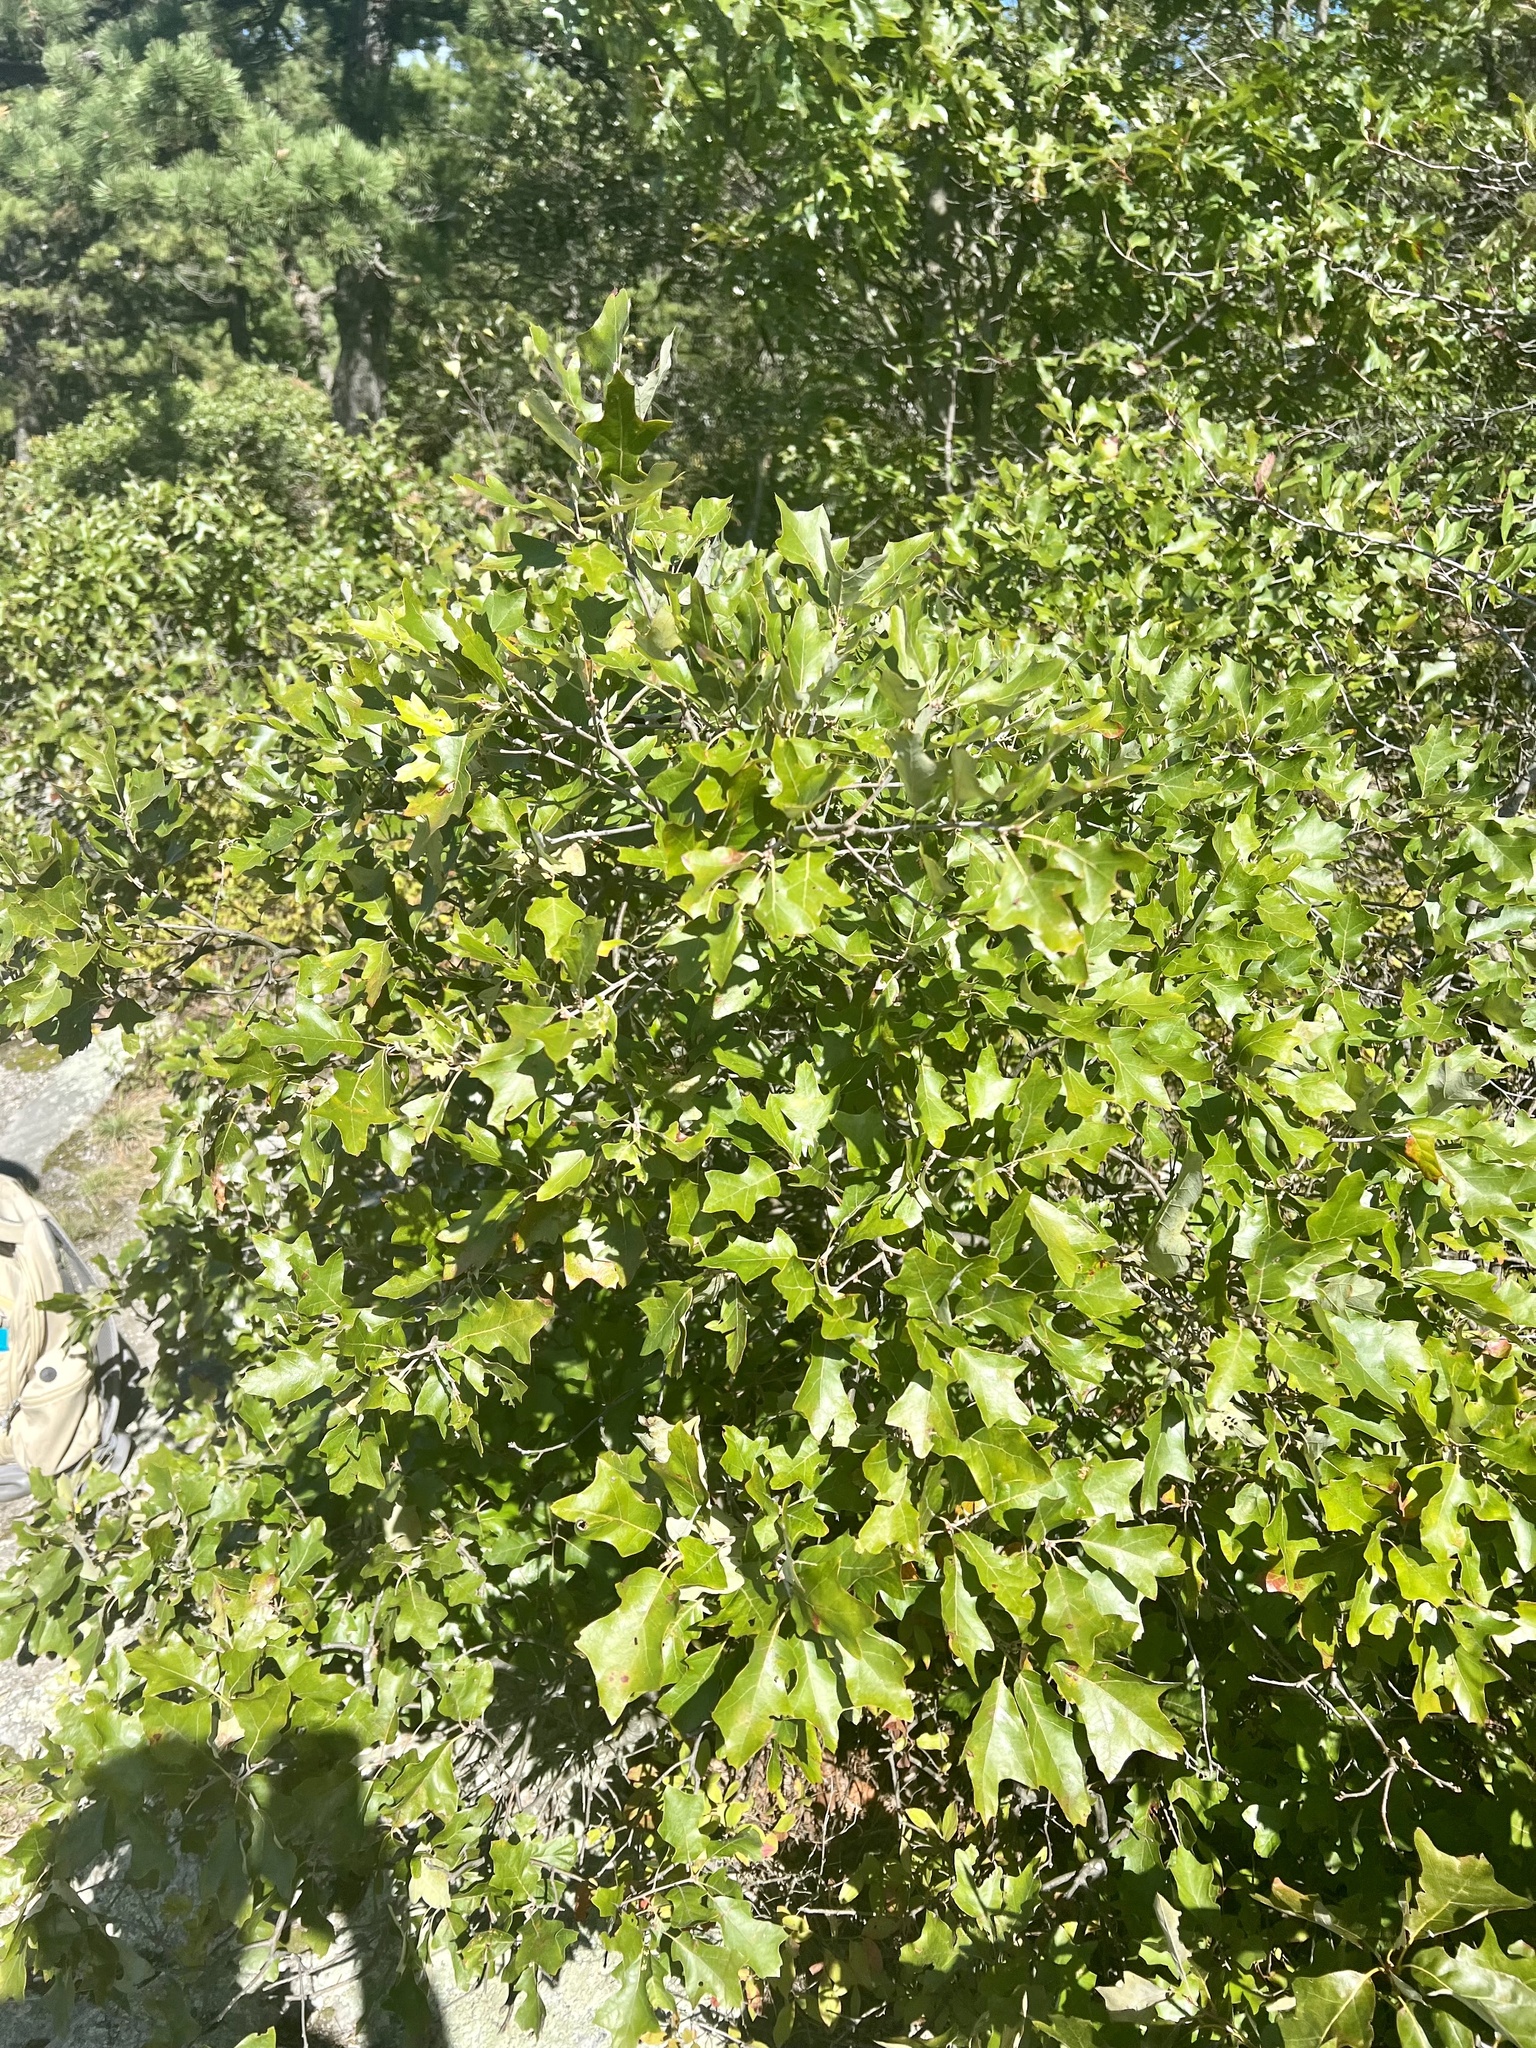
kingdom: Plantae
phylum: Tracheophyta
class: Magnoliopsida
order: Fagales
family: Fagaceae
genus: Quercus
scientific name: Quercus ilicifolia
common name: Bear oak
